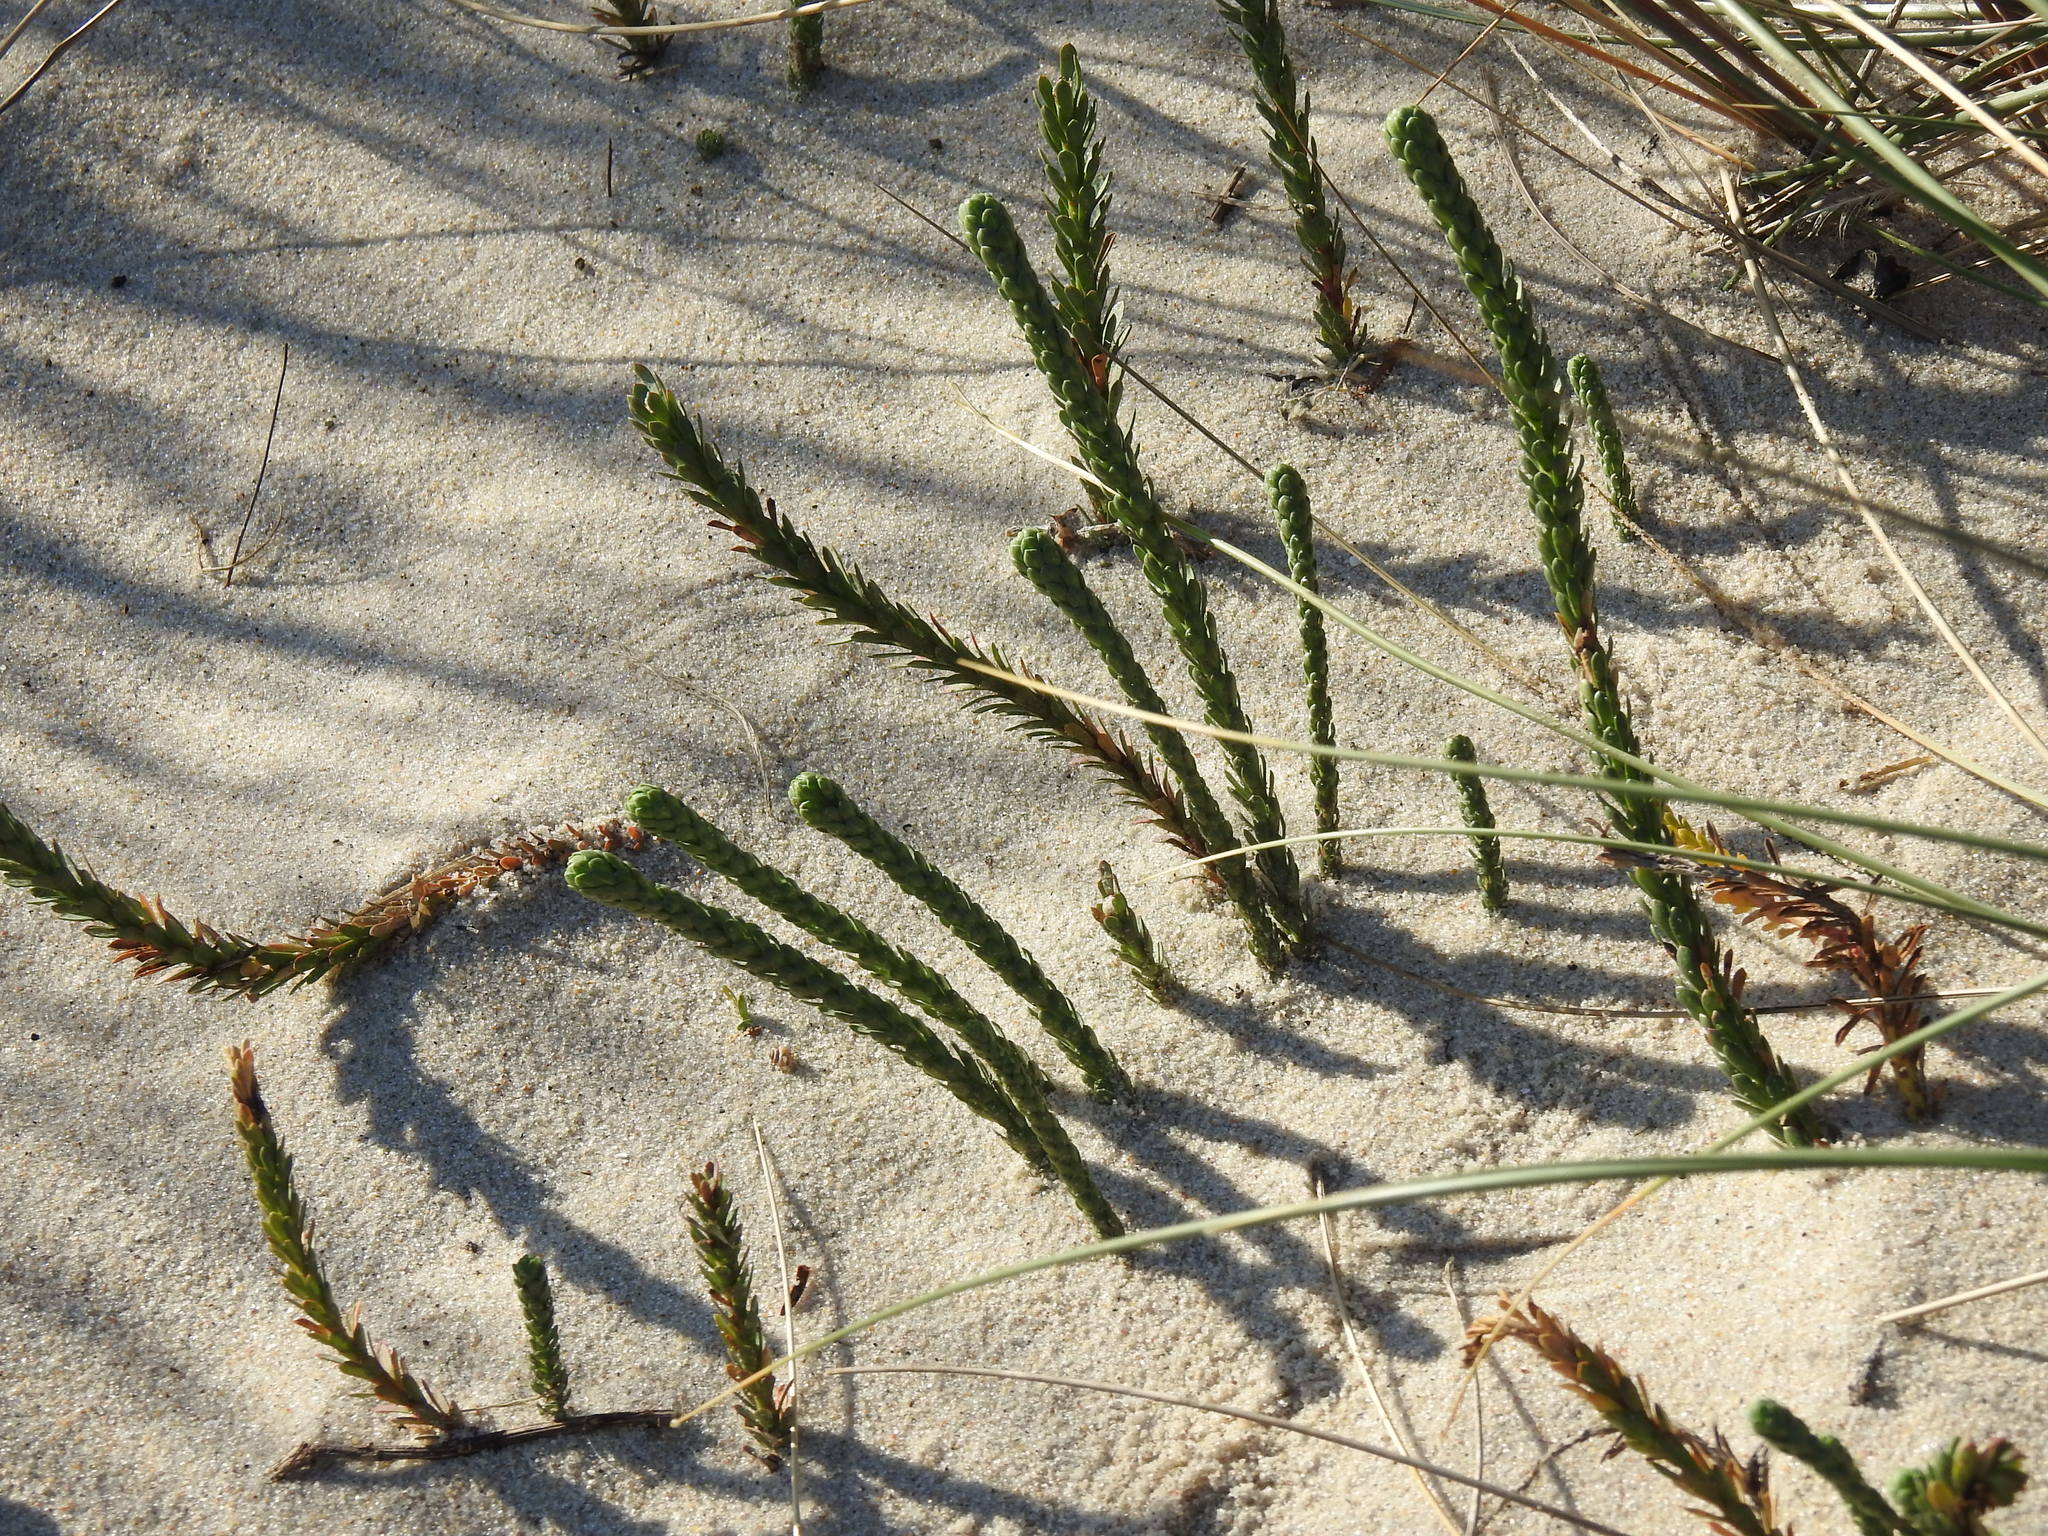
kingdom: Plantae
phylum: Tracheophyta
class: Magnoliopsida
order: Malpighiales
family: Euphorbiaceae
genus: Euphorbia
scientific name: Euphorbia paralias
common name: Sea spurge
